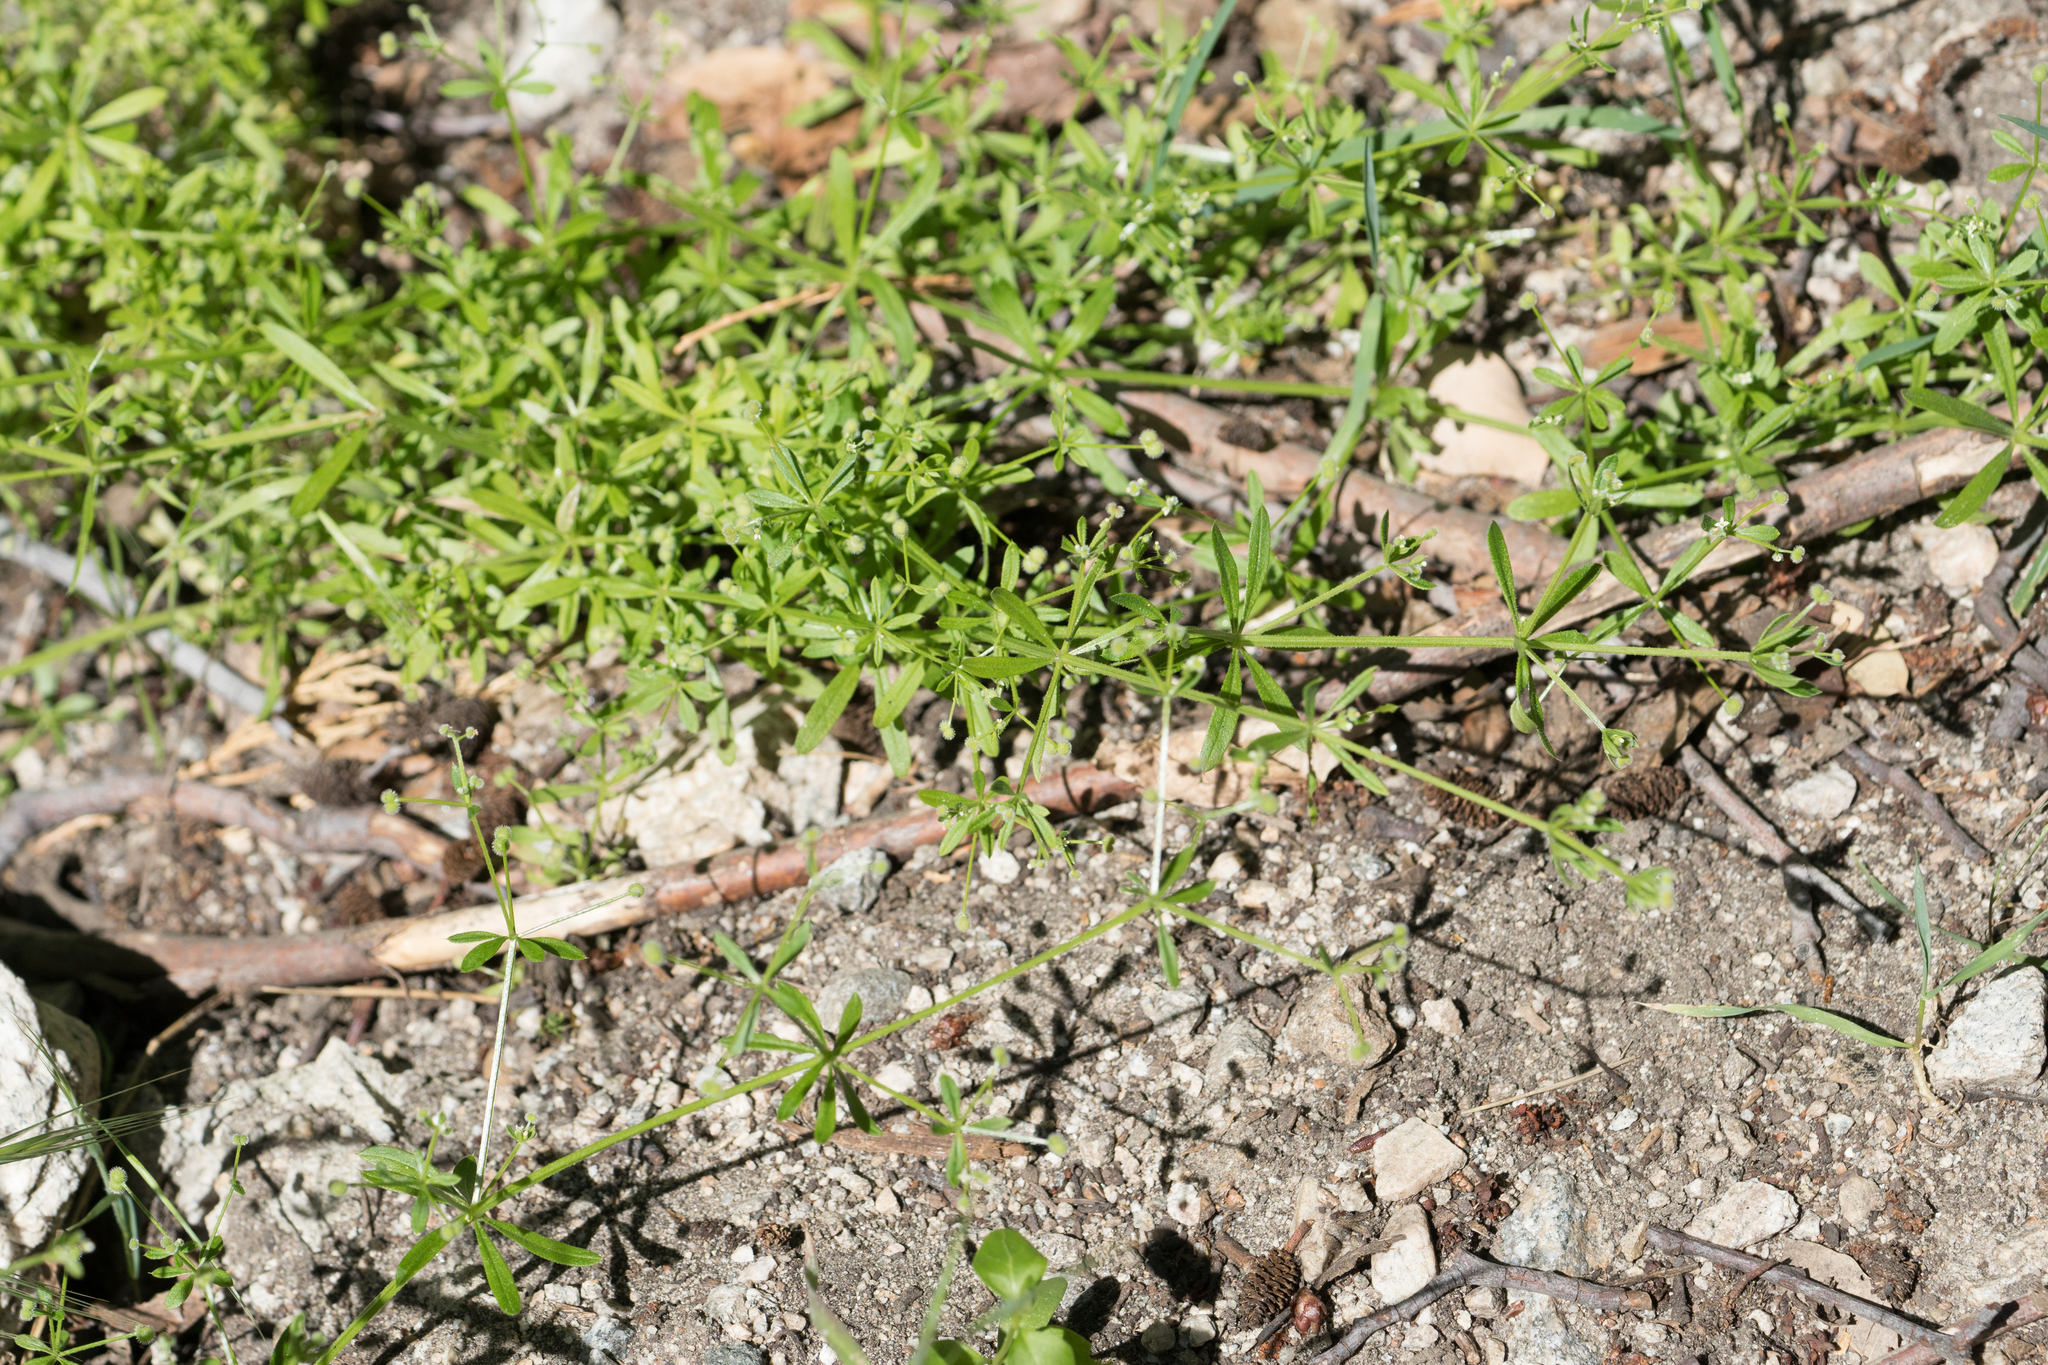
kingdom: Plantae
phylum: Tracheophyta
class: Magnoliopsida
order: Gentianales
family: Rubiaceae
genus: Galium
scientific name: Galium aparine
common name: Cleavers
